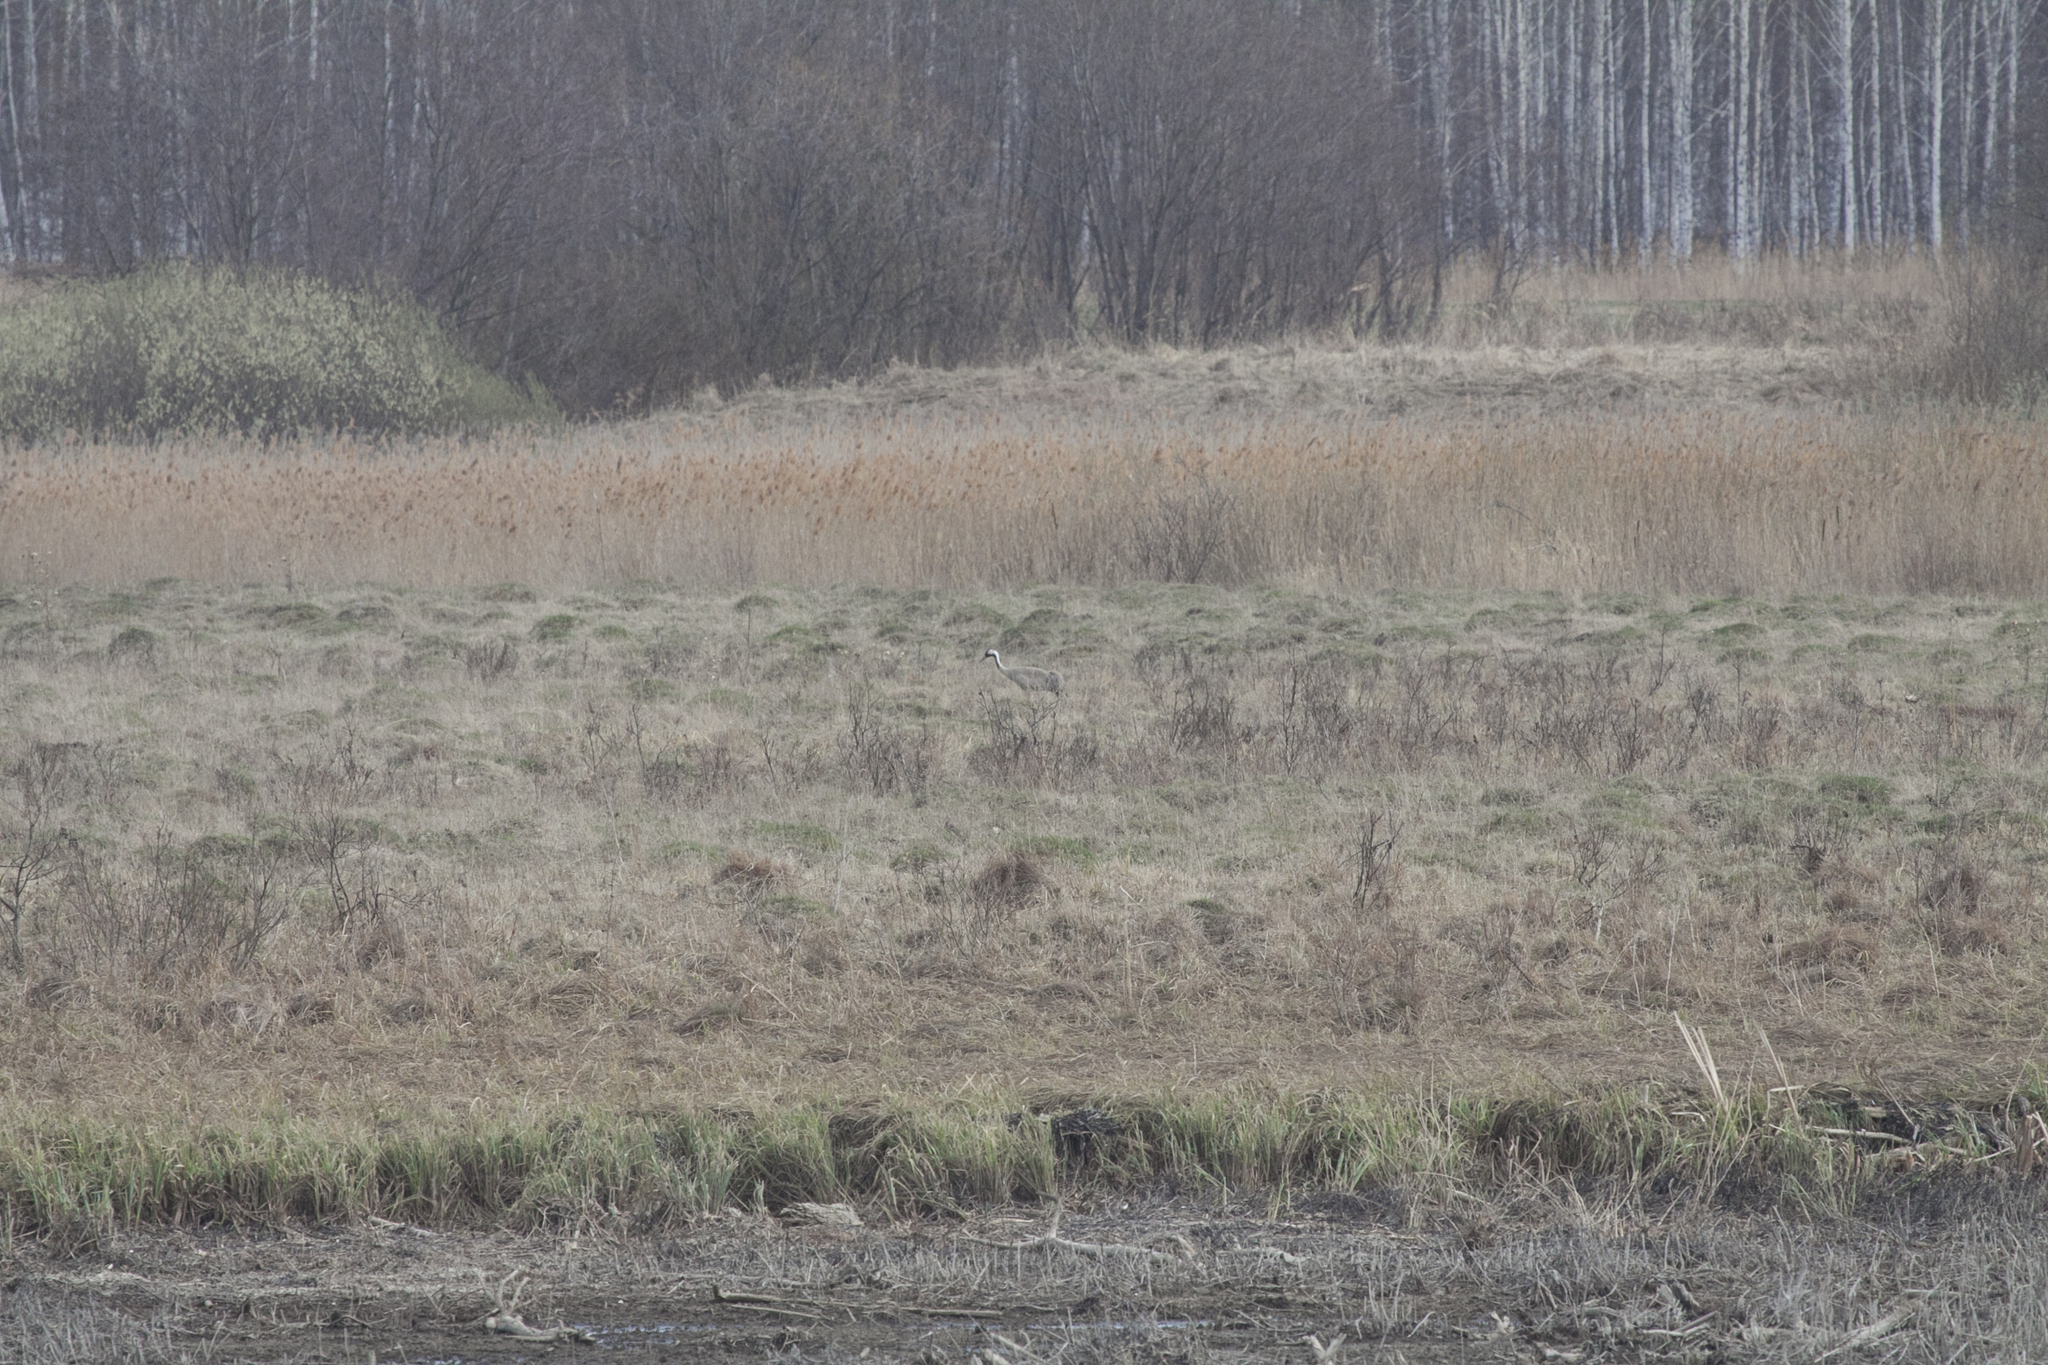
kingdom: Animalia
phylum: Chordata
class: Aves
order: Gruiformes
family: Gruidae
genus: Grus
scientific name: Grus grus
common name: Common crane
